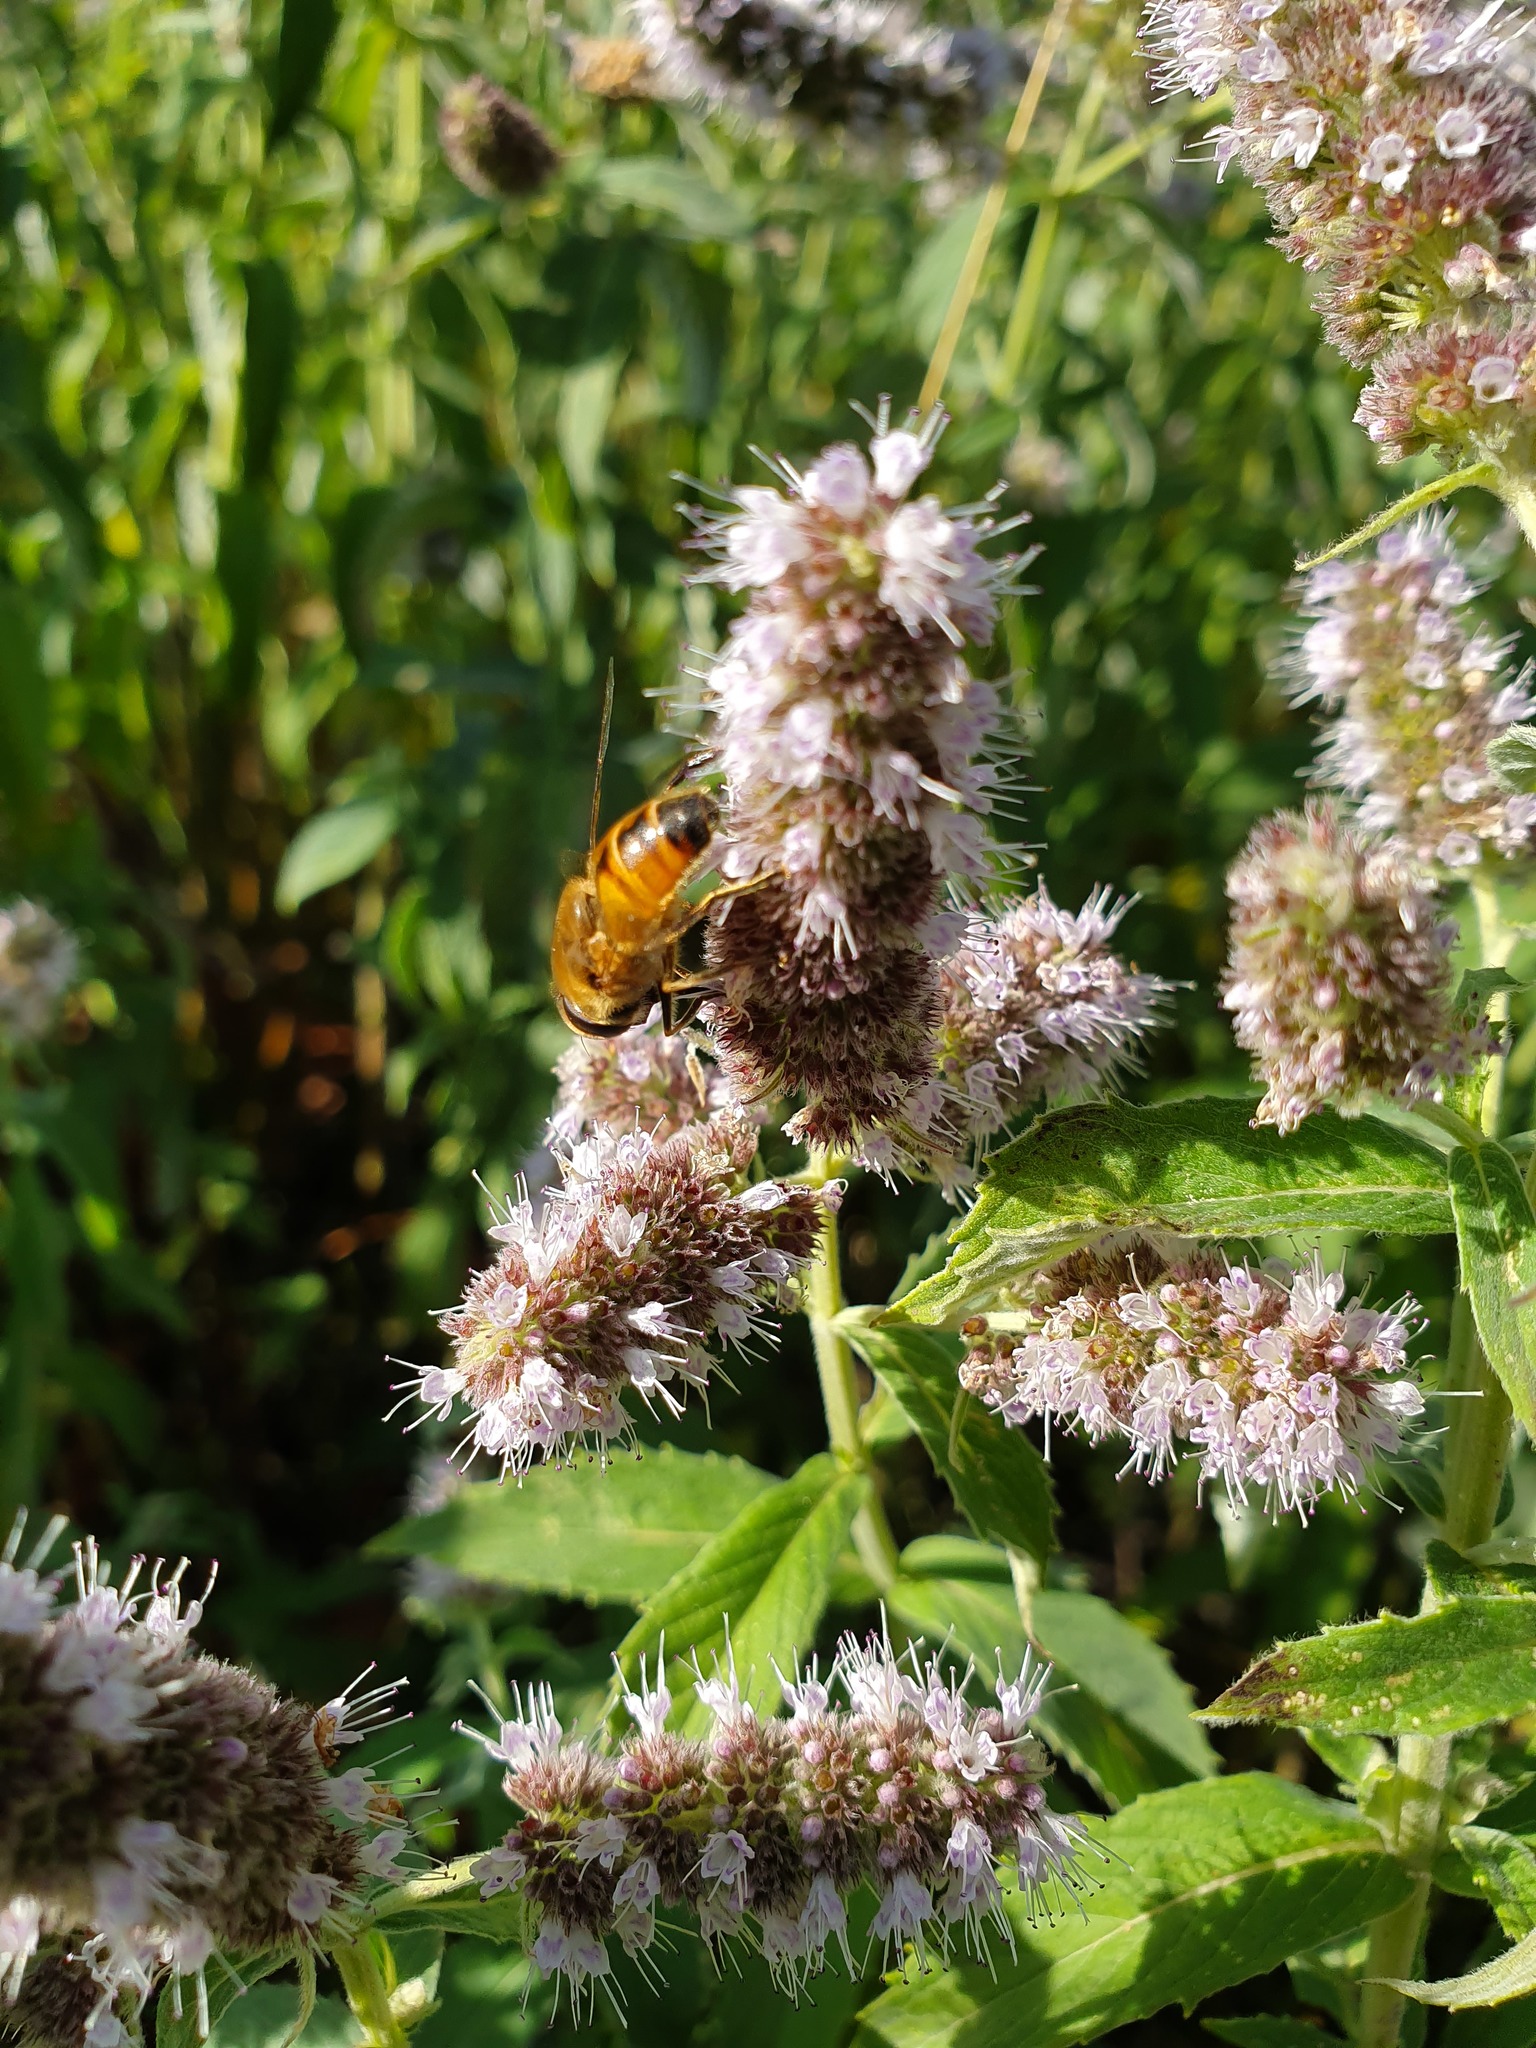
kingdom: Plantae
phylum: Tracheophyta
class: Magnoliopsida
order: Lamiales
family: Lamiaceae
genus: Mentha
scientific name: Mentha longifolia
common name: Horse mint
